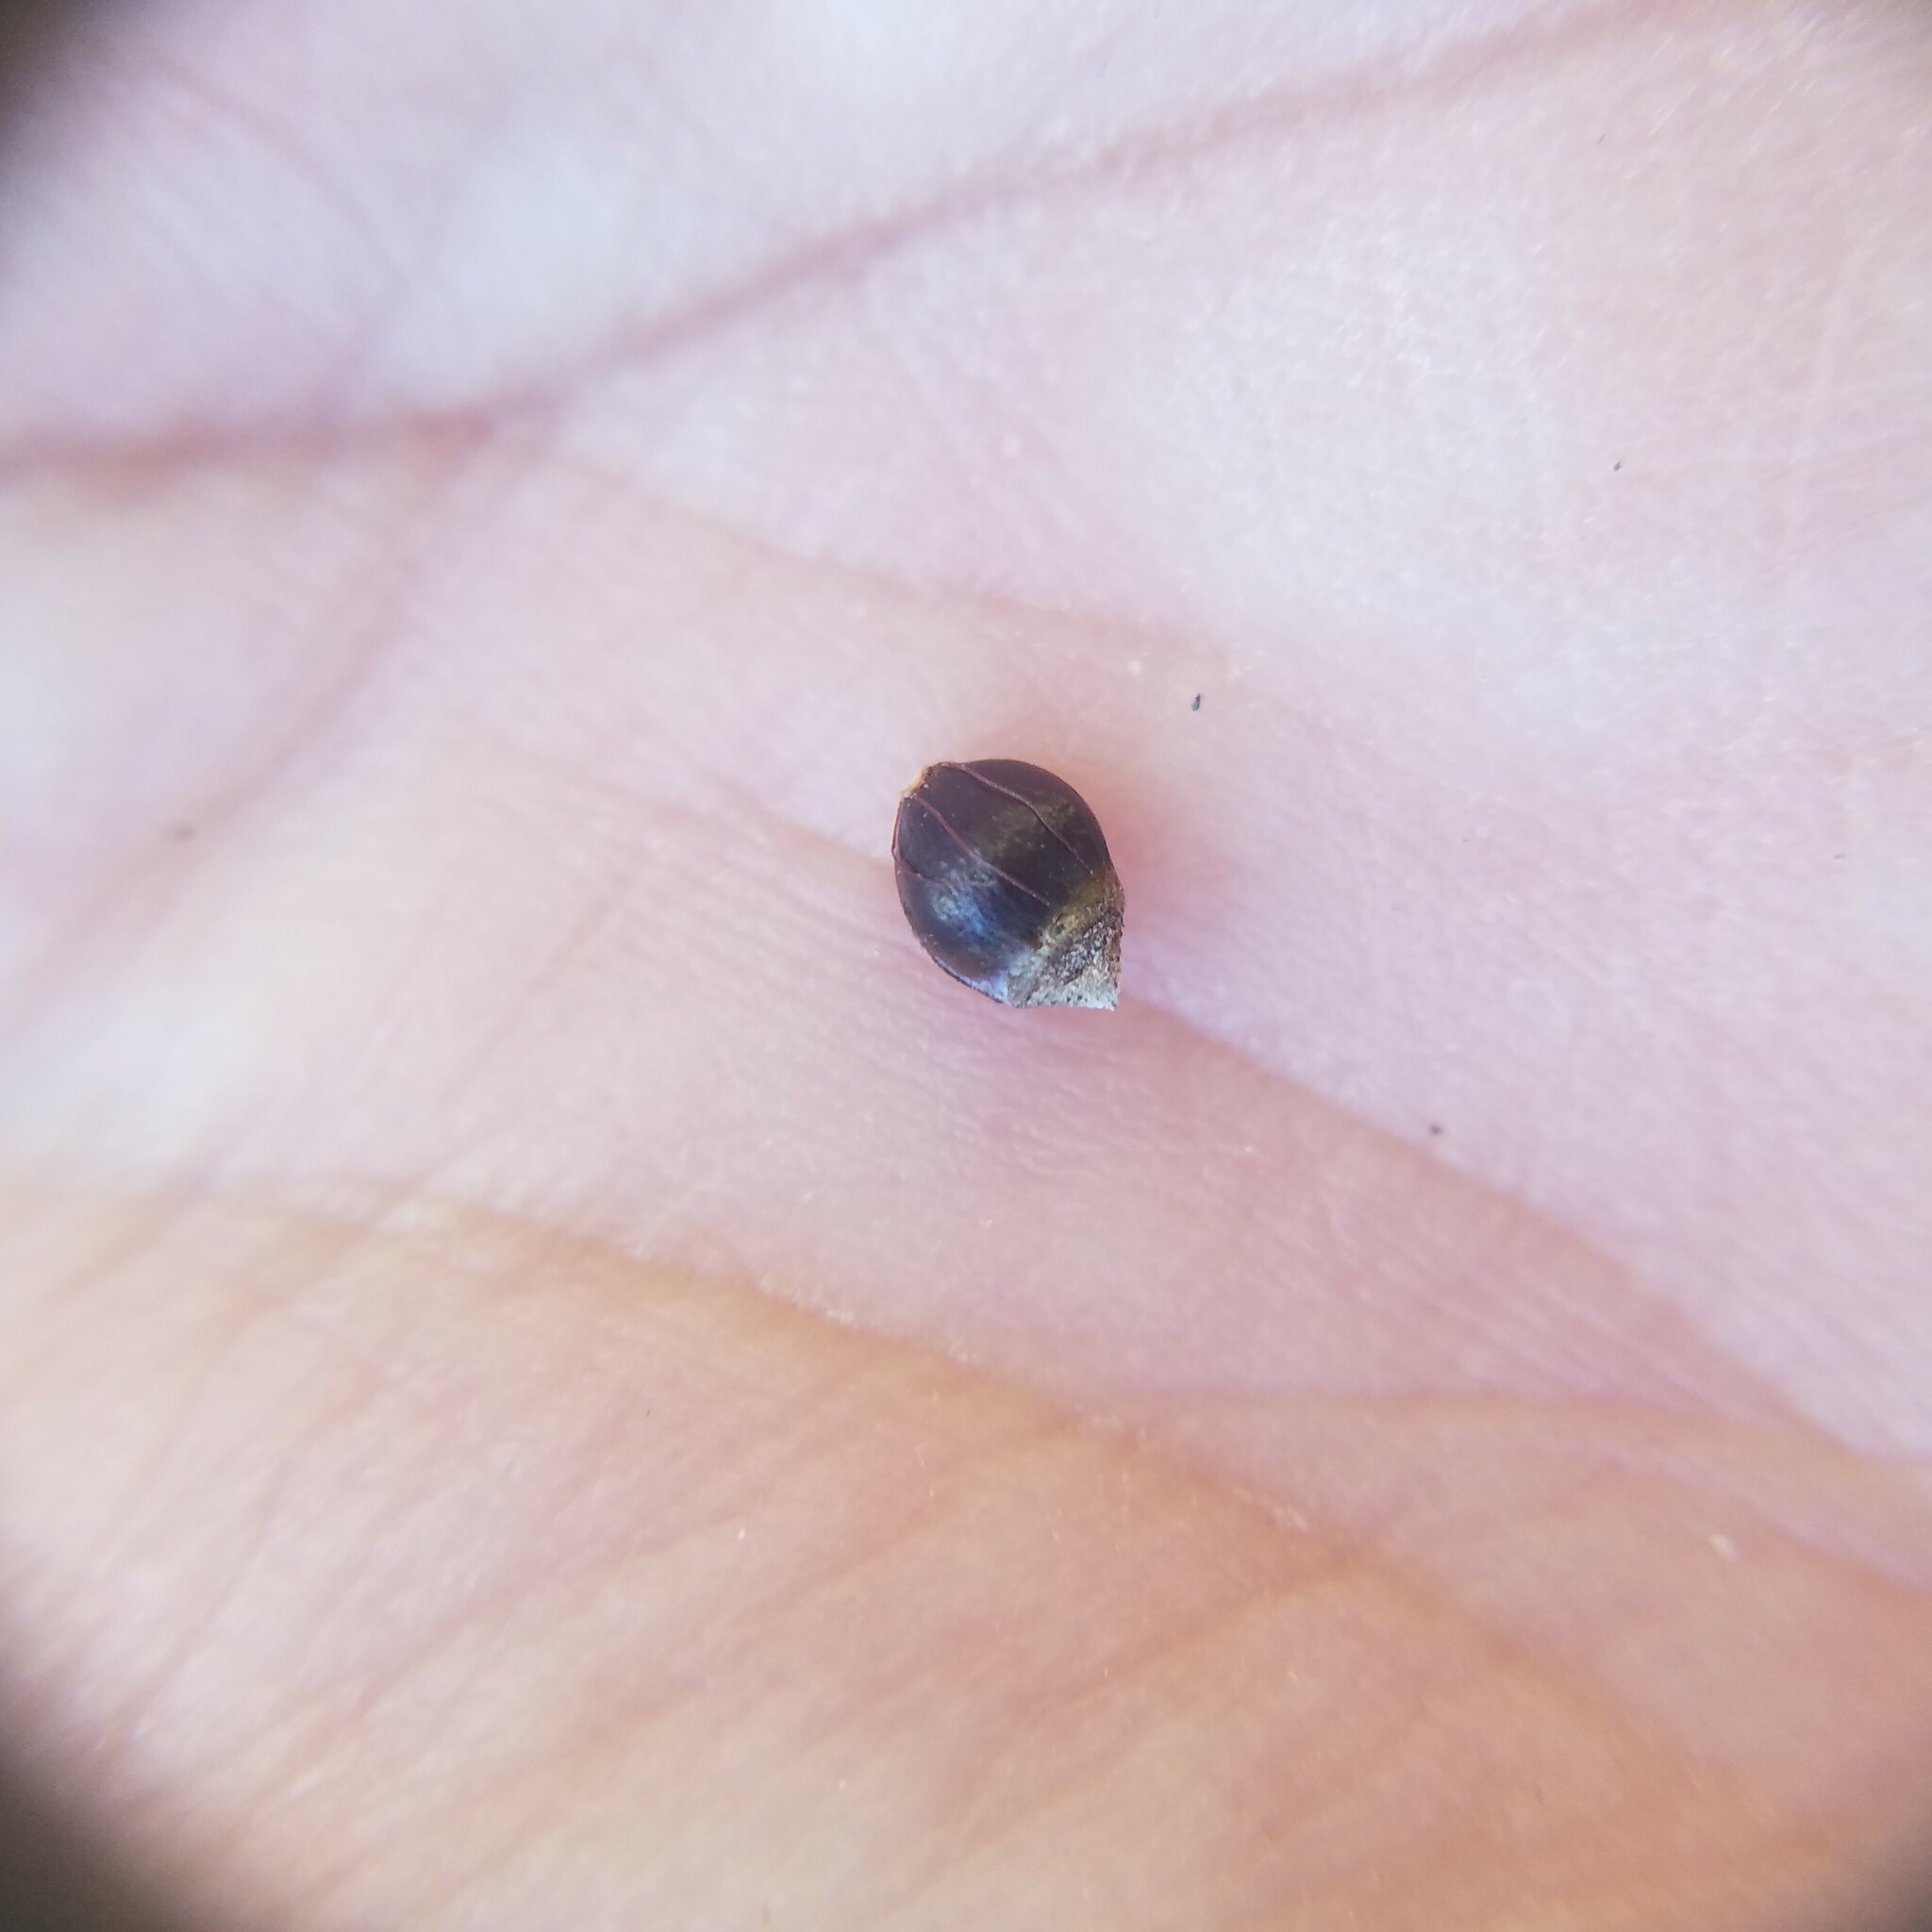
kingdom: Plantae
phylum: Tracheophyta
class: Liliopsida
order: Poales
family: Cyperaceae
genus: Rhynchospora
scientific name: Rhynchospora megalocarpa
